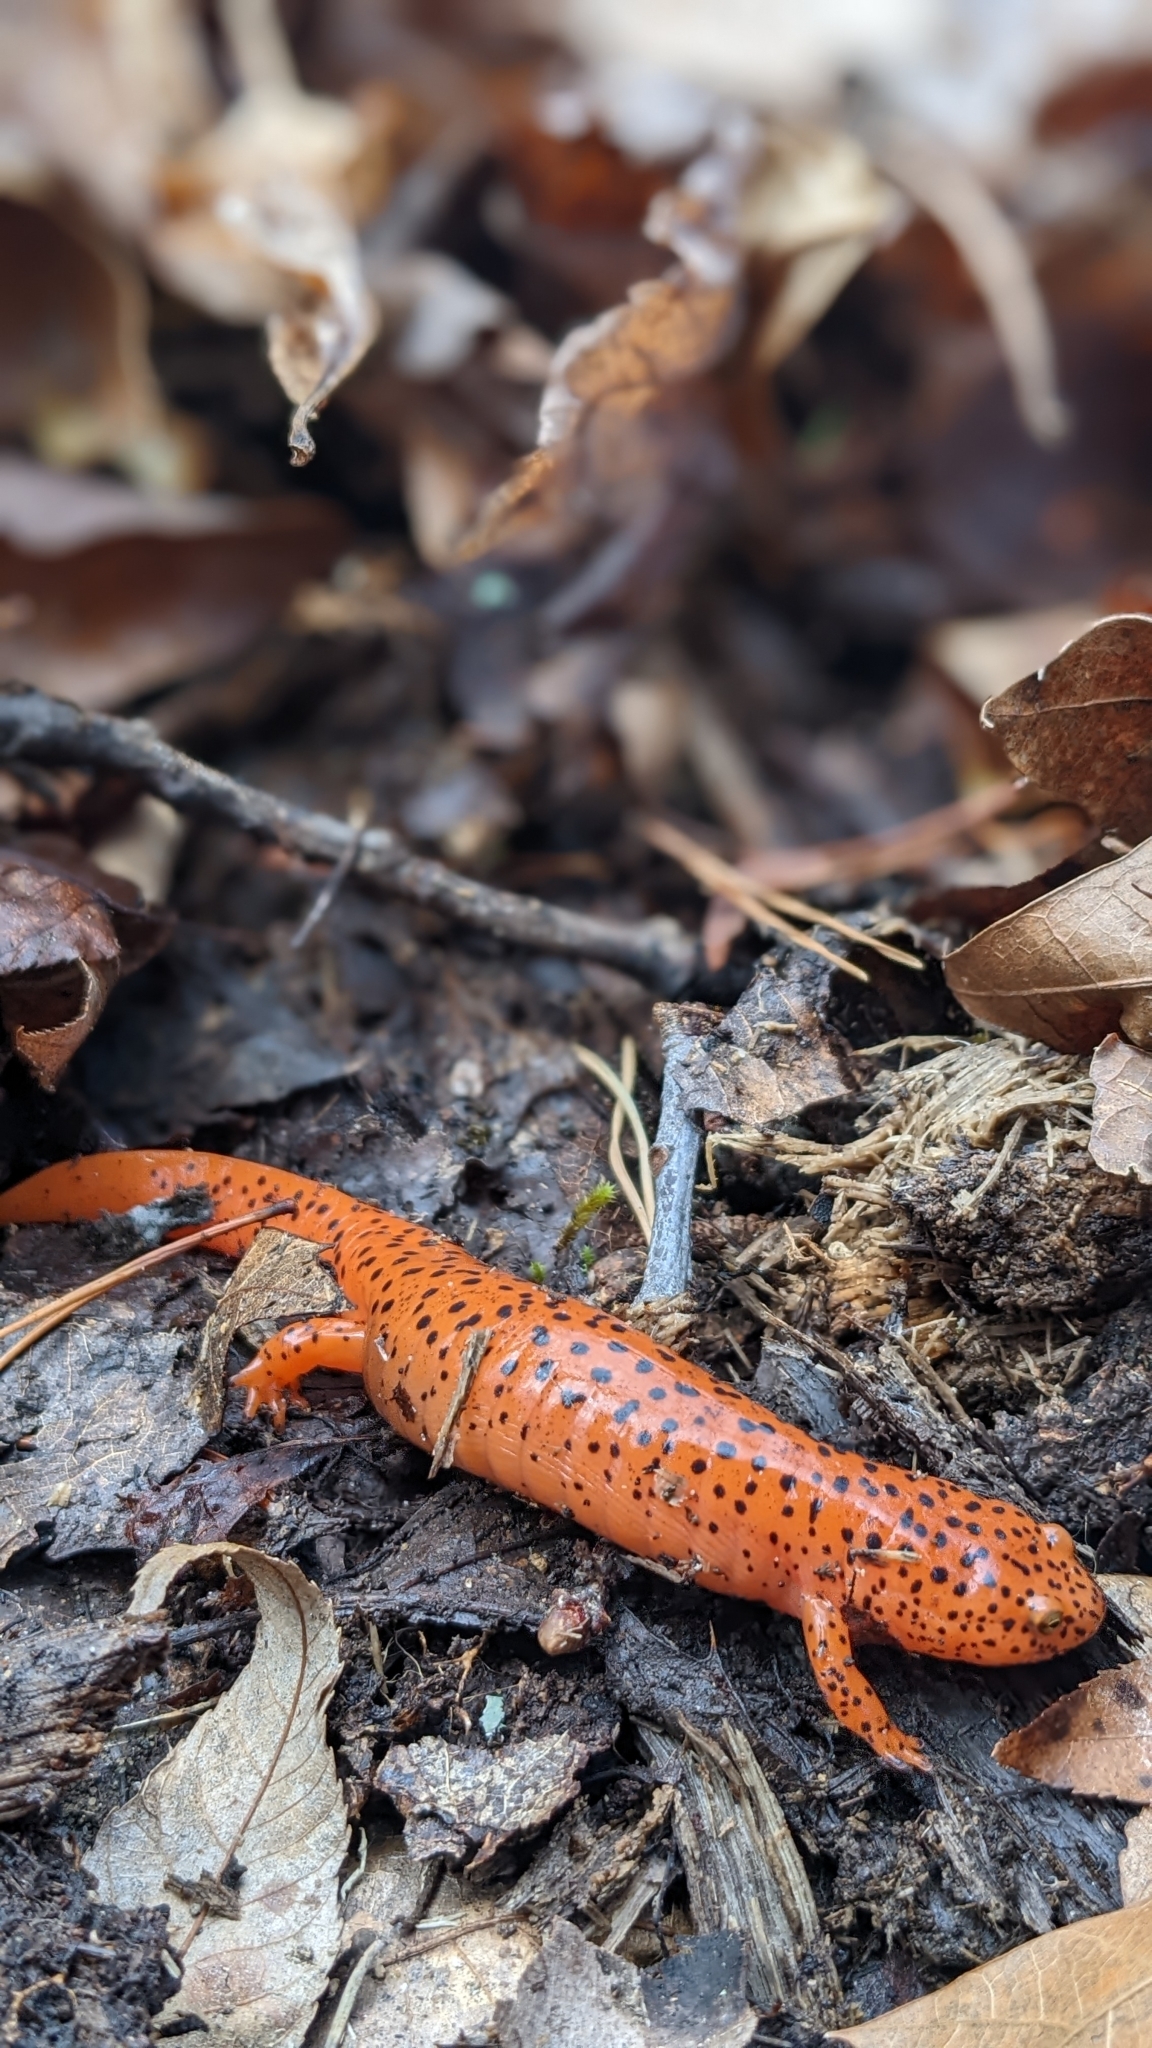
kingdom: Animalia
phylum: Chordata
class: Amphibia
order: Caudata
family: Plethodontidae
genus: Pseudotriton
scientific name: Pseudotriton ruber
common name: Red salamander
